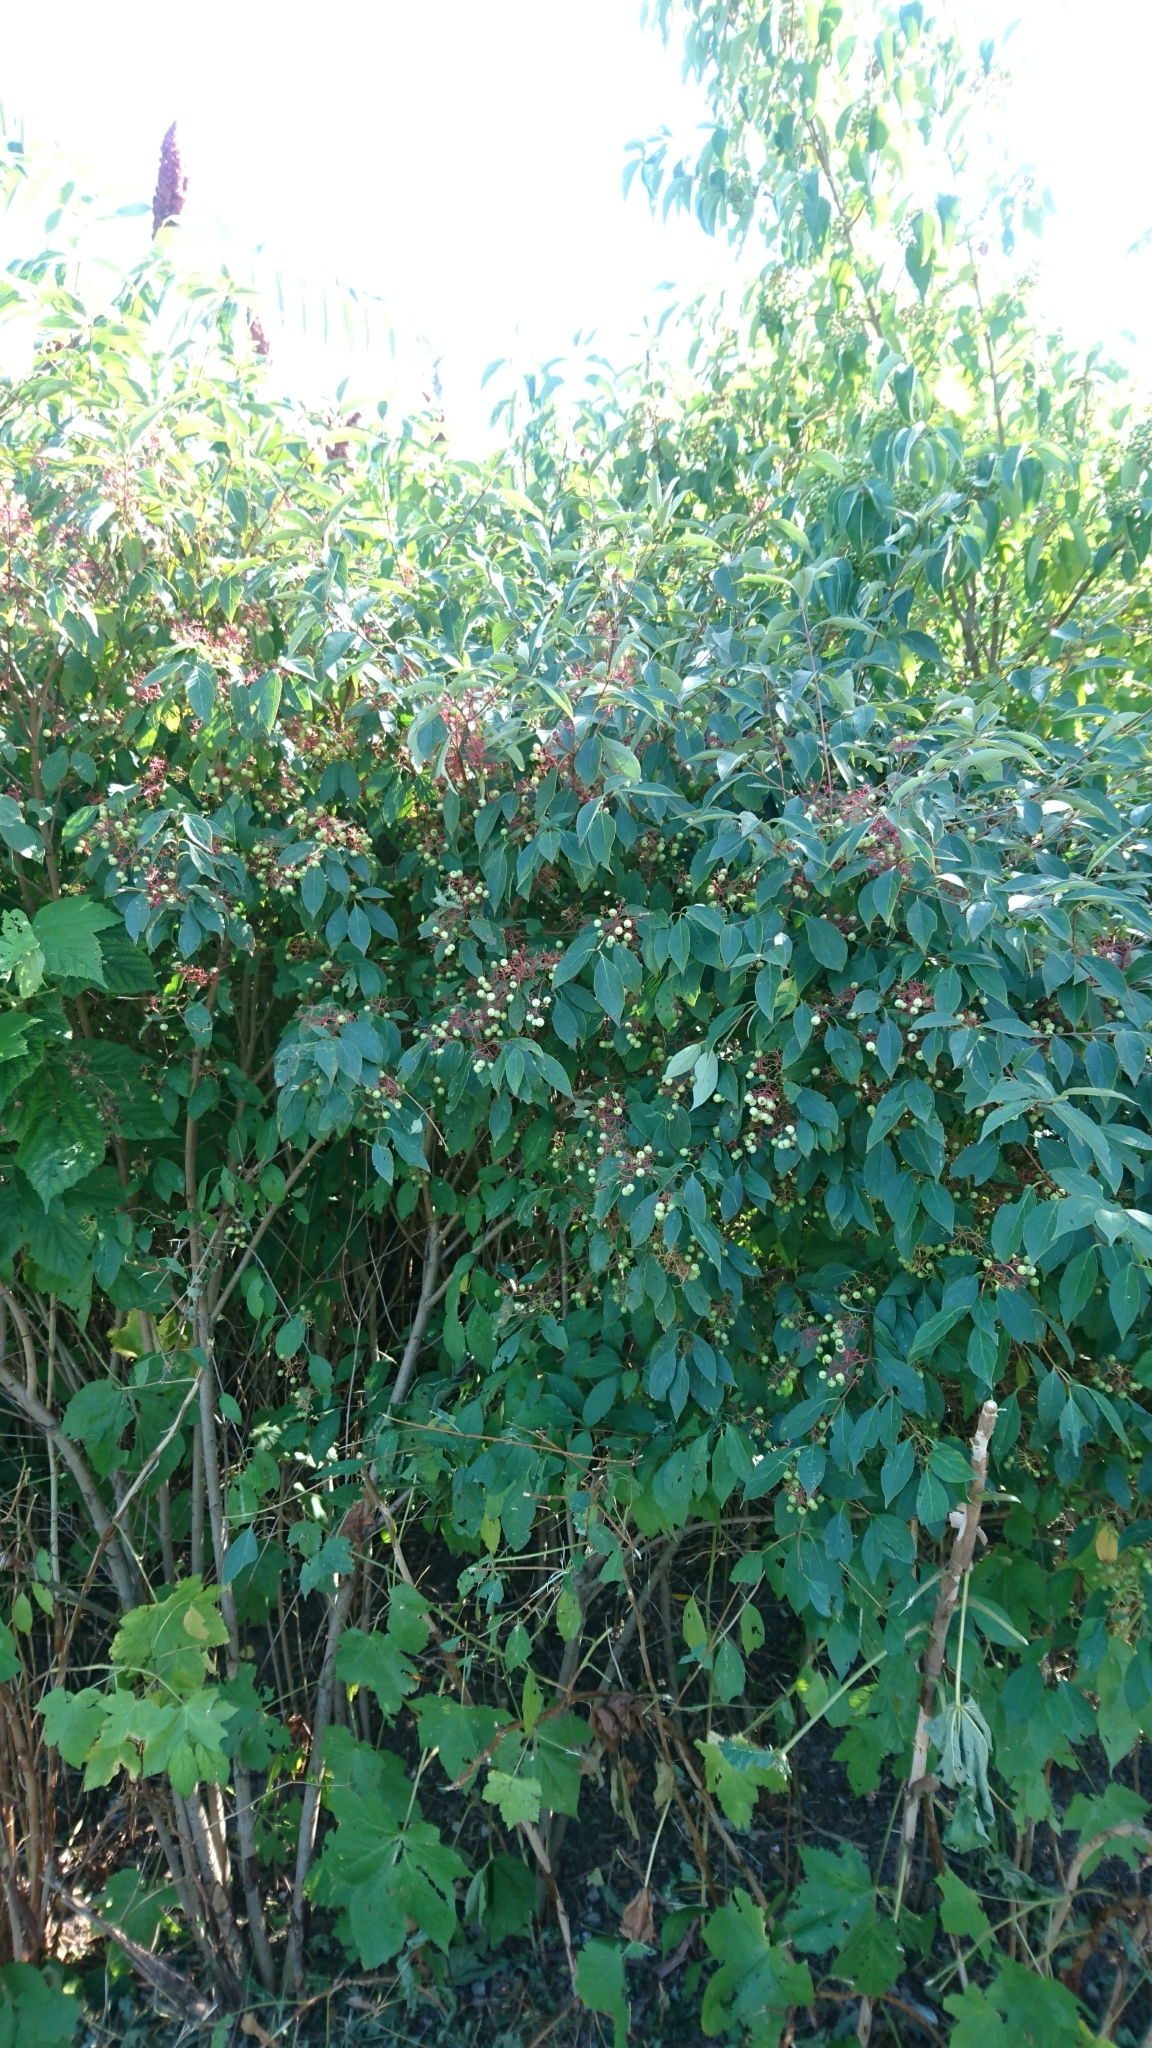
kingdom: Plantae
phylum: Tracheophyta
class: Magnoliopsida
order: Cornales
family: Cornaceae
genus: Cornus
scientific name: Cornus racemosa
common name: Panicled dogwood
